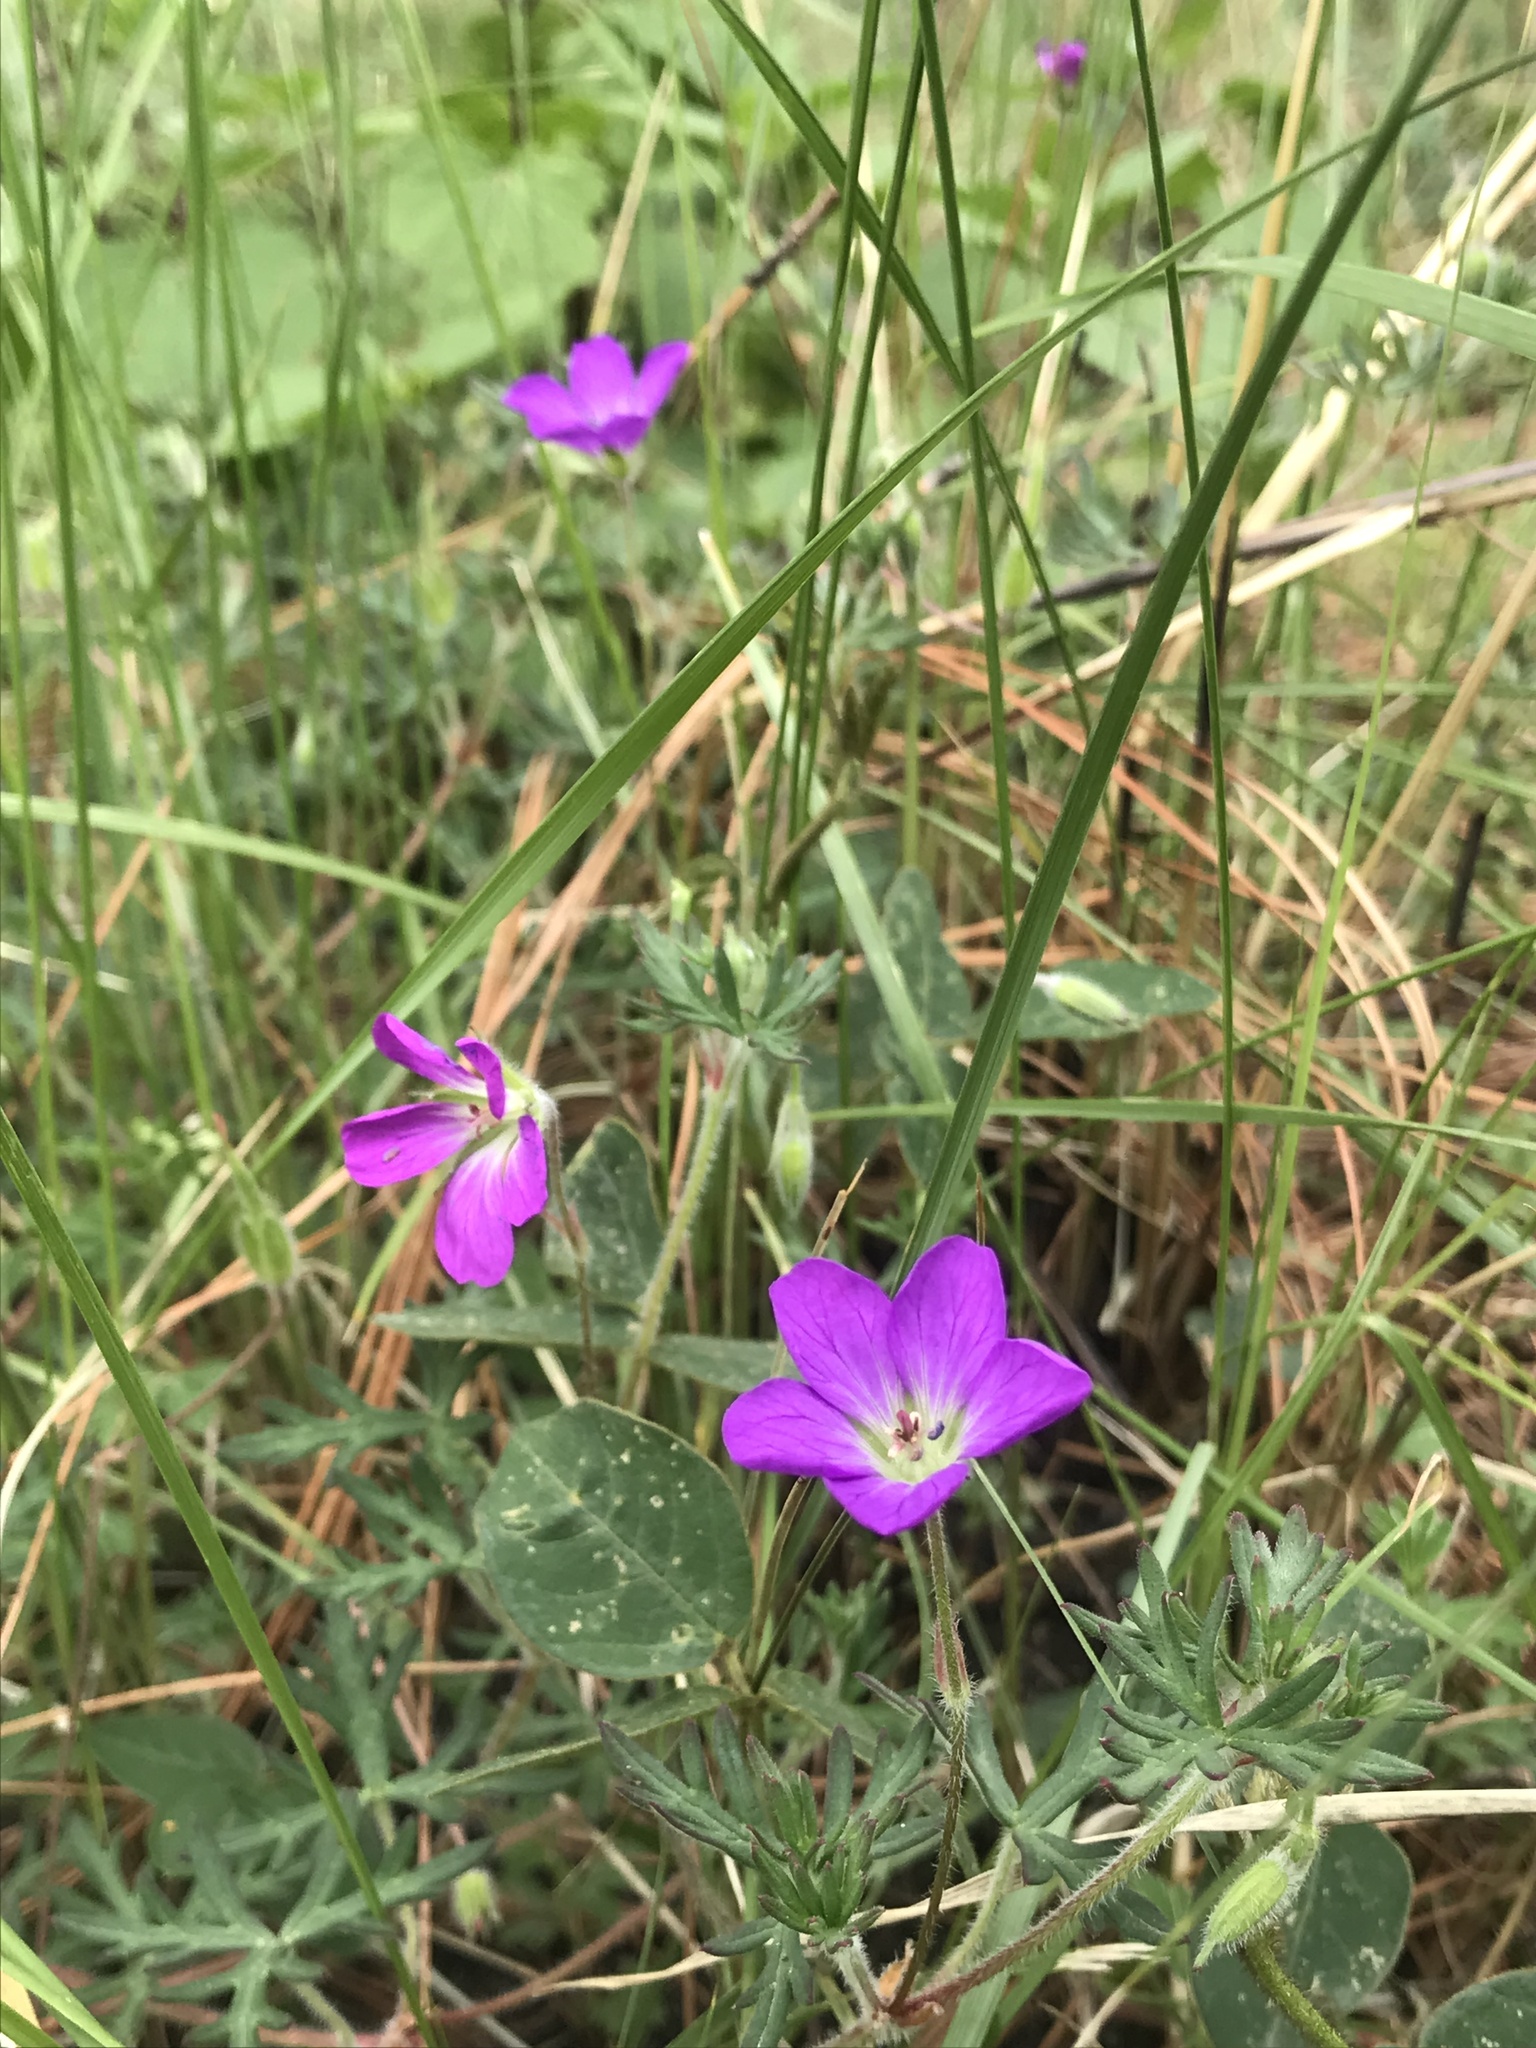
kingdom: Plantae
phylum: Tracheophyta
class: Magnoliopsida
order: Geraniales
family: Geraniaceae
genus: Geranium
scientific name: Geranium potentillifolium
